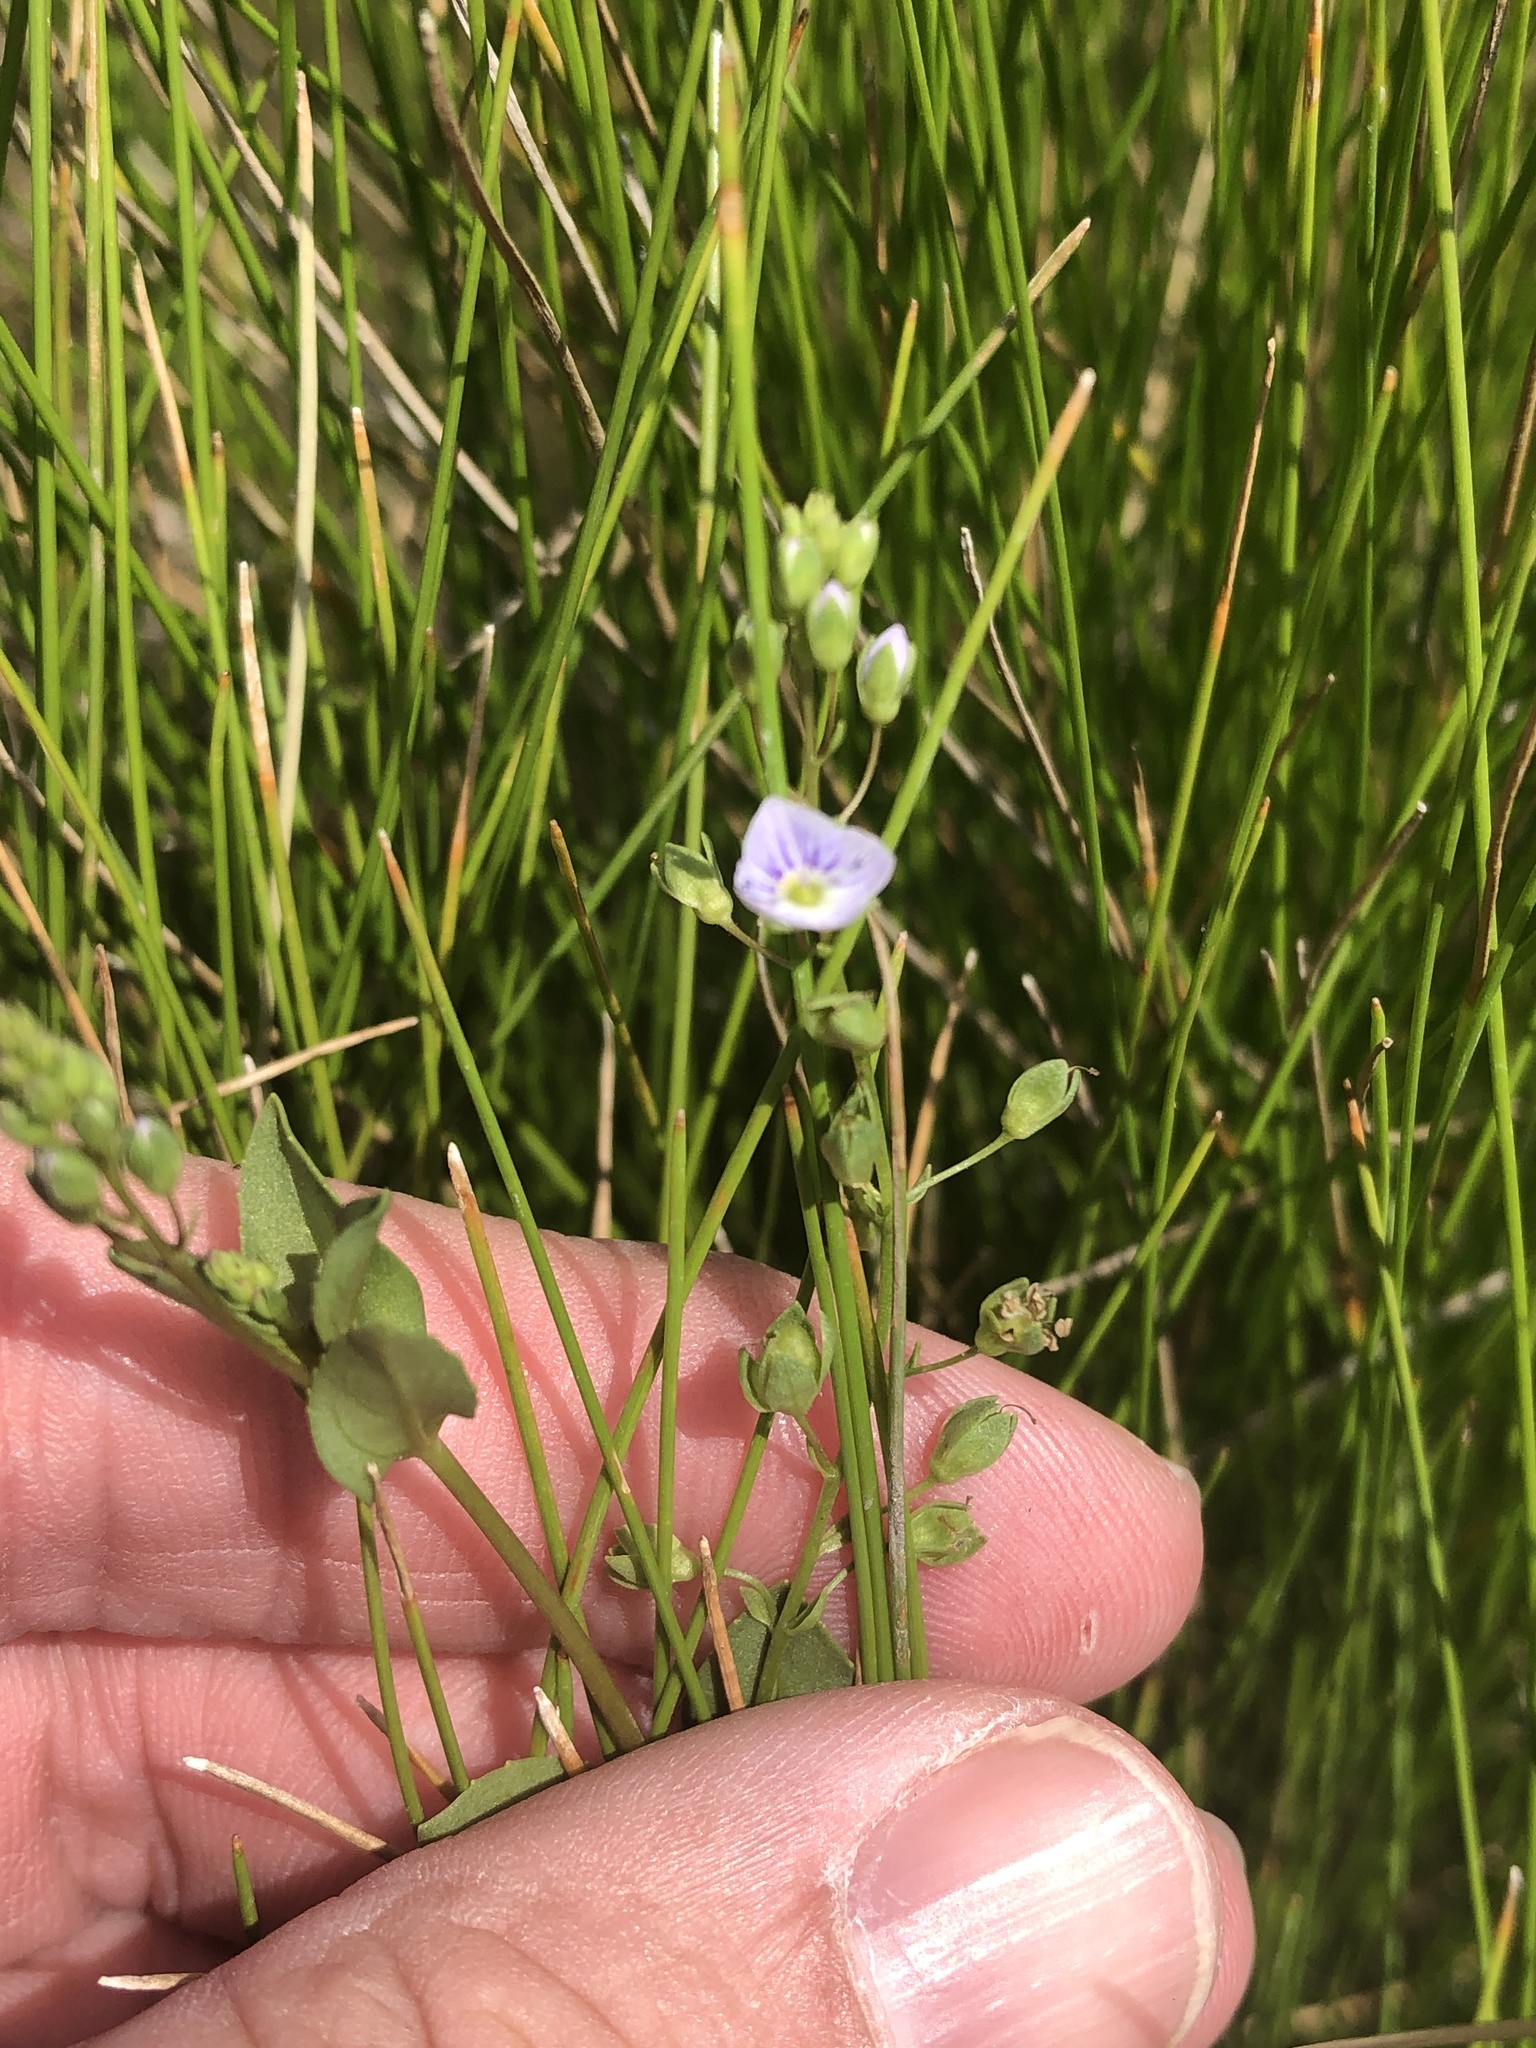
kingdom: Plantae
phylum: Tracheophyta
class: Magnoliopsida
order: Lamiales
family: Plantaginaceae
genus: Veronica
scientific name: Veronica anagallis-aquatica
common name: Water speedwell
